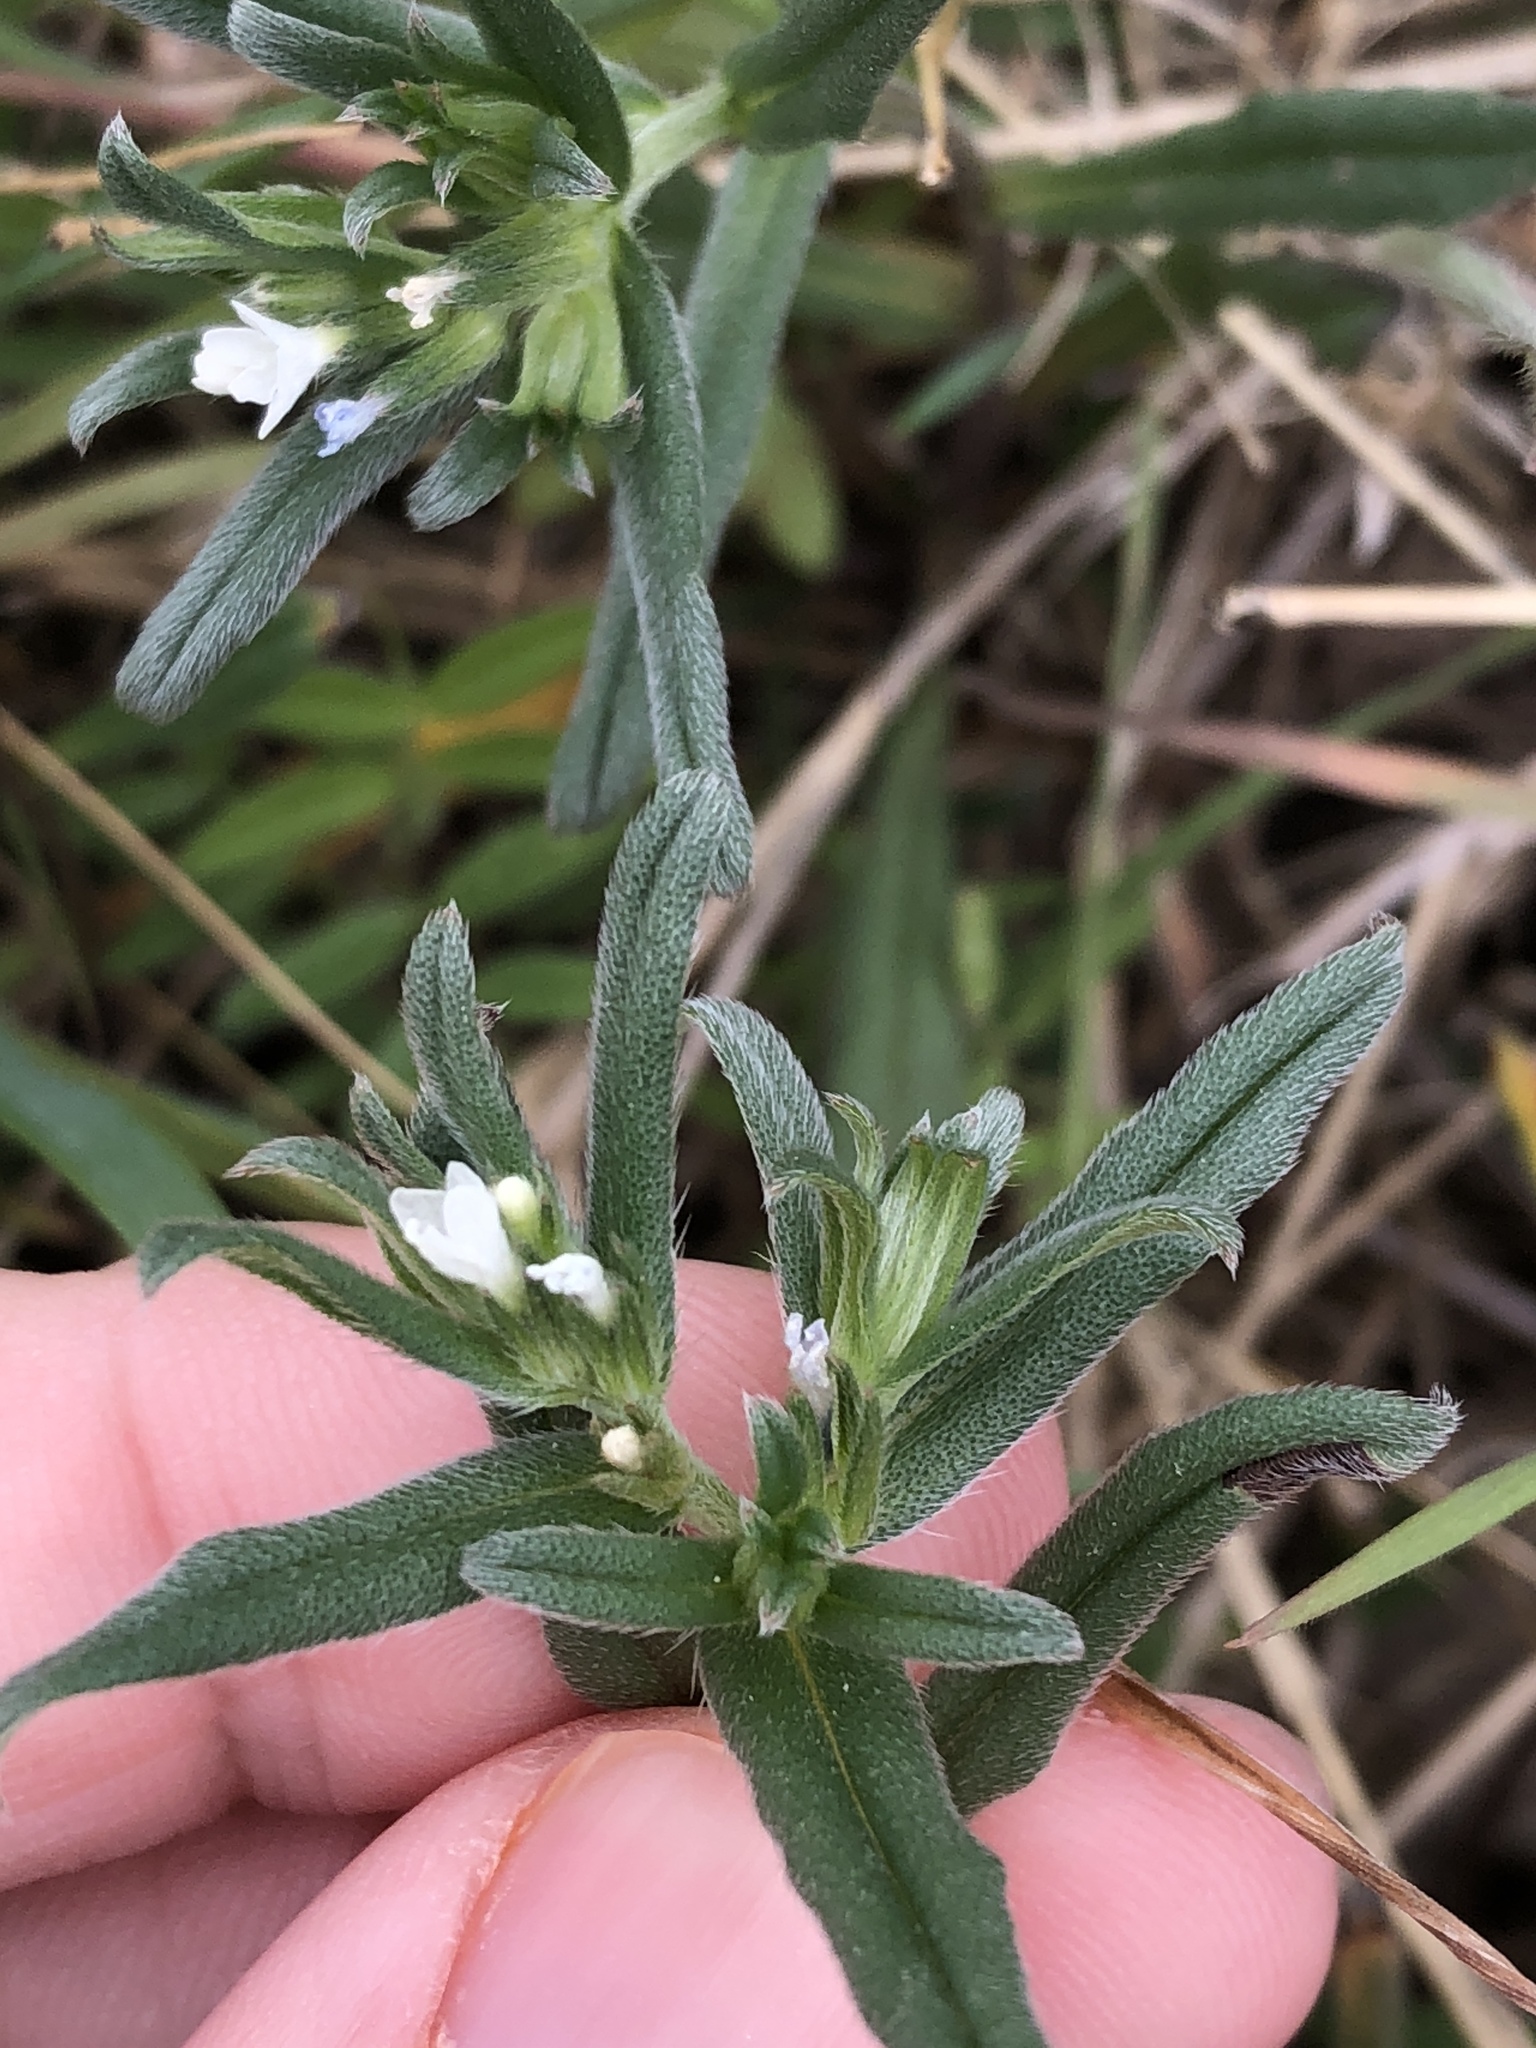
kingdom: Plantae
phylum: Tracheophyta
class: Magnoliopsida
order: Boraginales
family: Boraginaceae
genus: Buglossoides
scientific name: Buglossoides arvensis
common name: Corn gromwell
